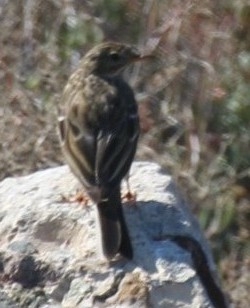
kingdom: Animalia
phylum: Chordata
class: Aves
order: Passeriformes
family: Motacillidae
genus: Anthus
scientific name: Anthus pratensis
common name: Meadow pipit
